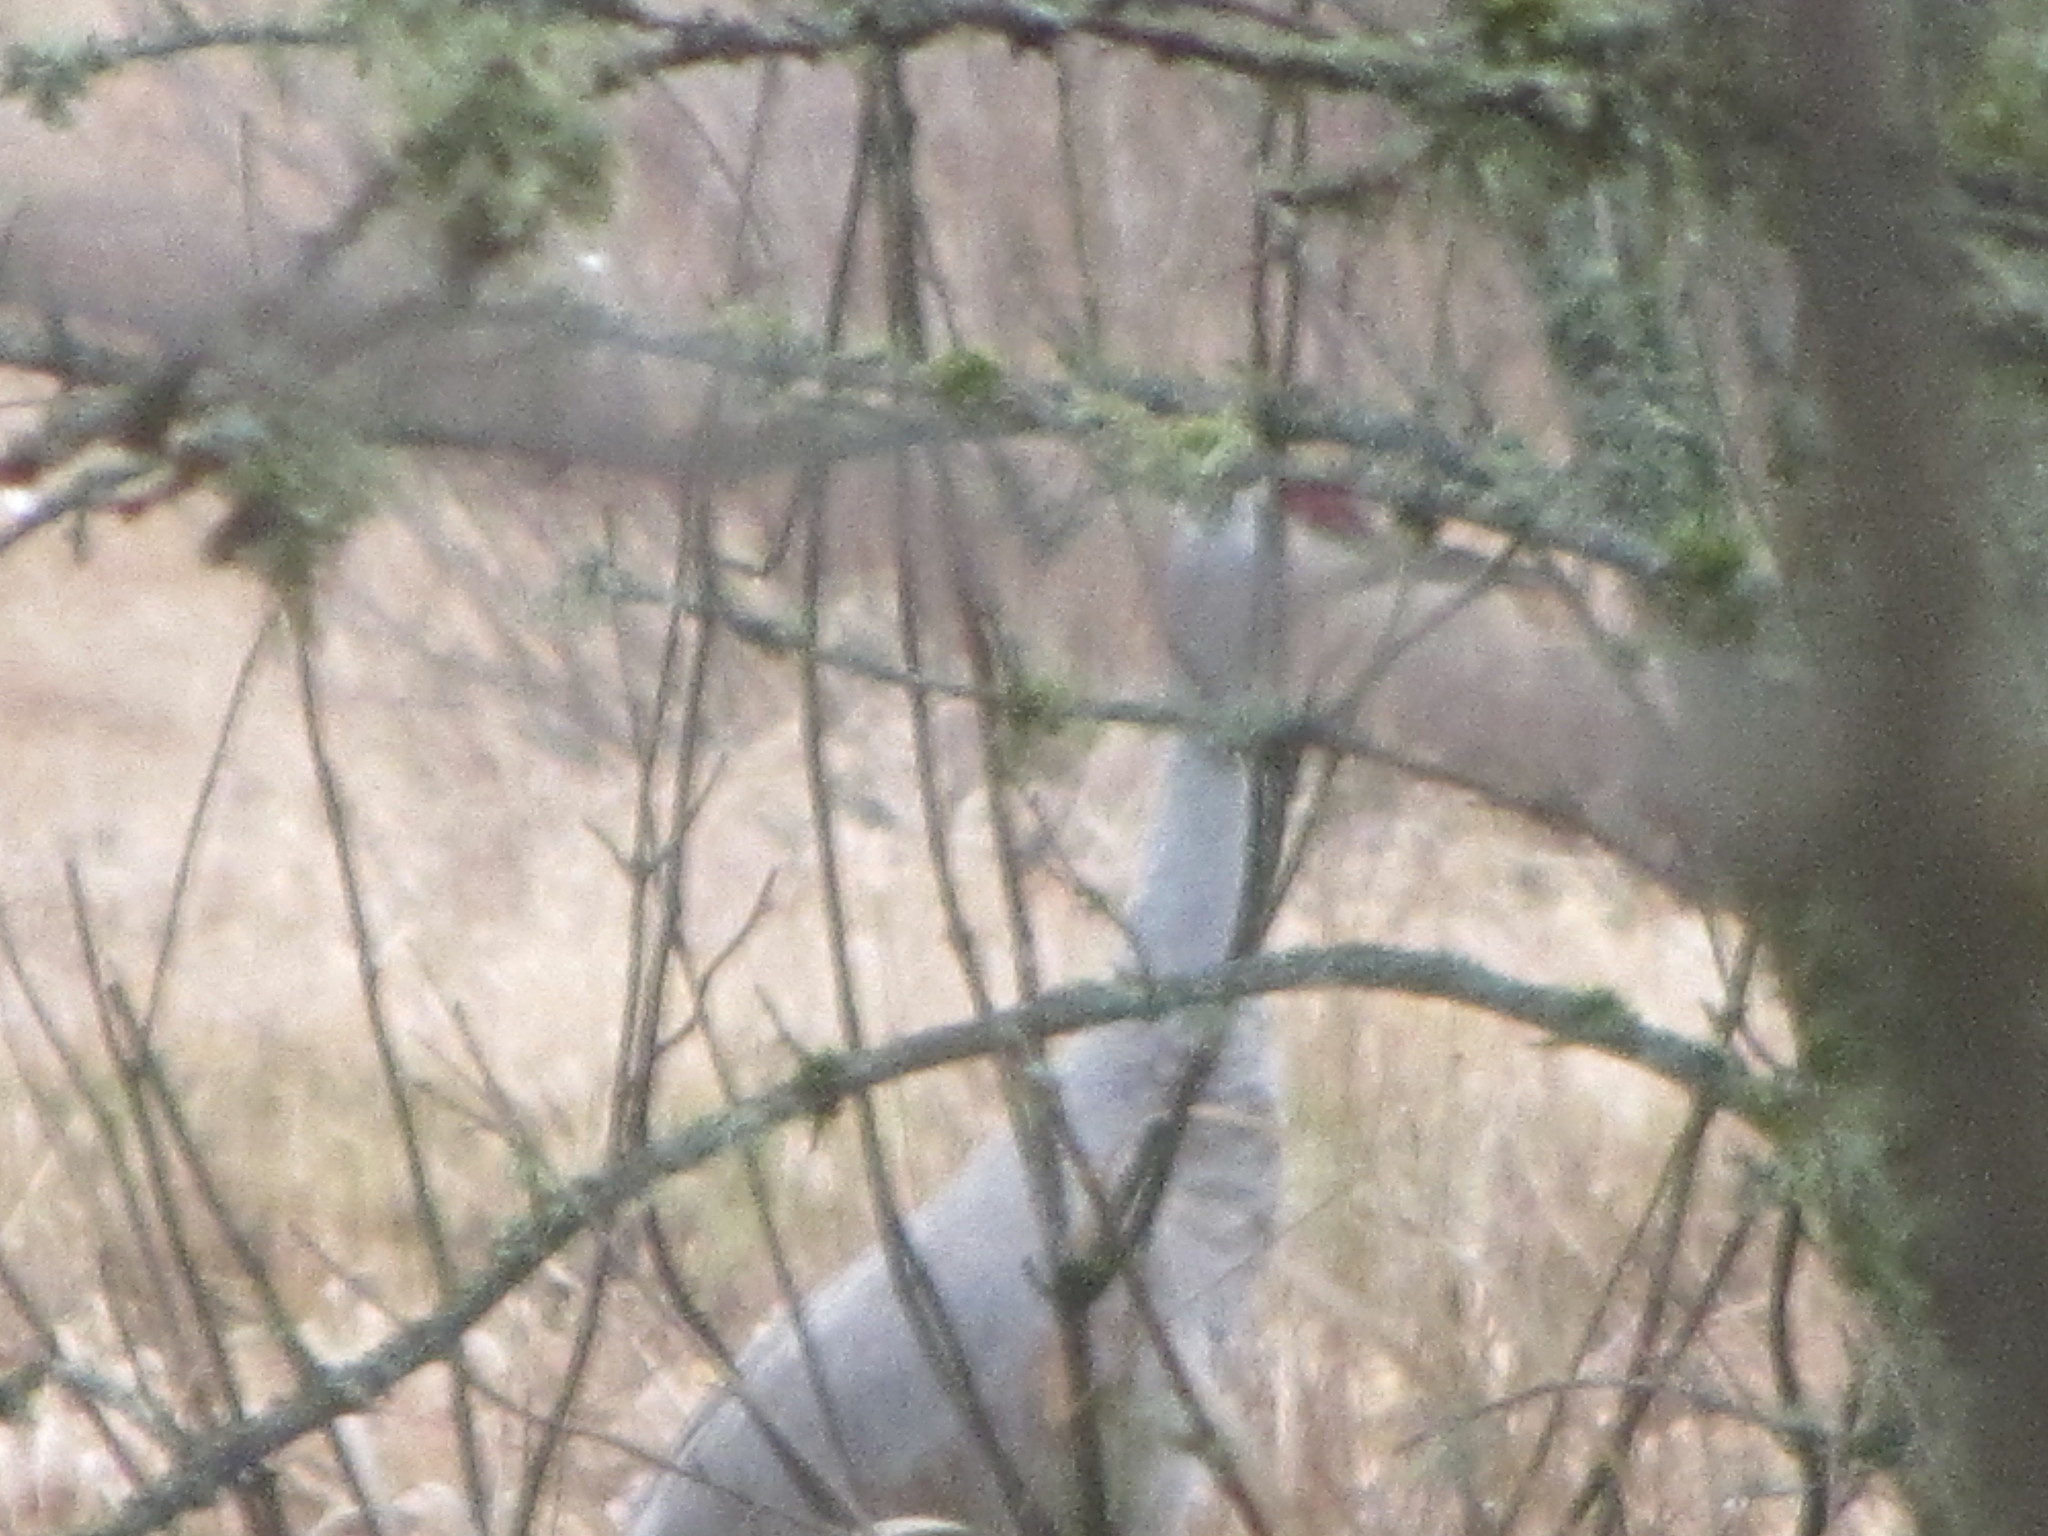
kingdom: Animalia
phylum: Chordata
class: Aves
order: Gruiformes
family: Gruidae
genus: Grus
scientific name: Grus canadensis
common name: Sandhill crane
